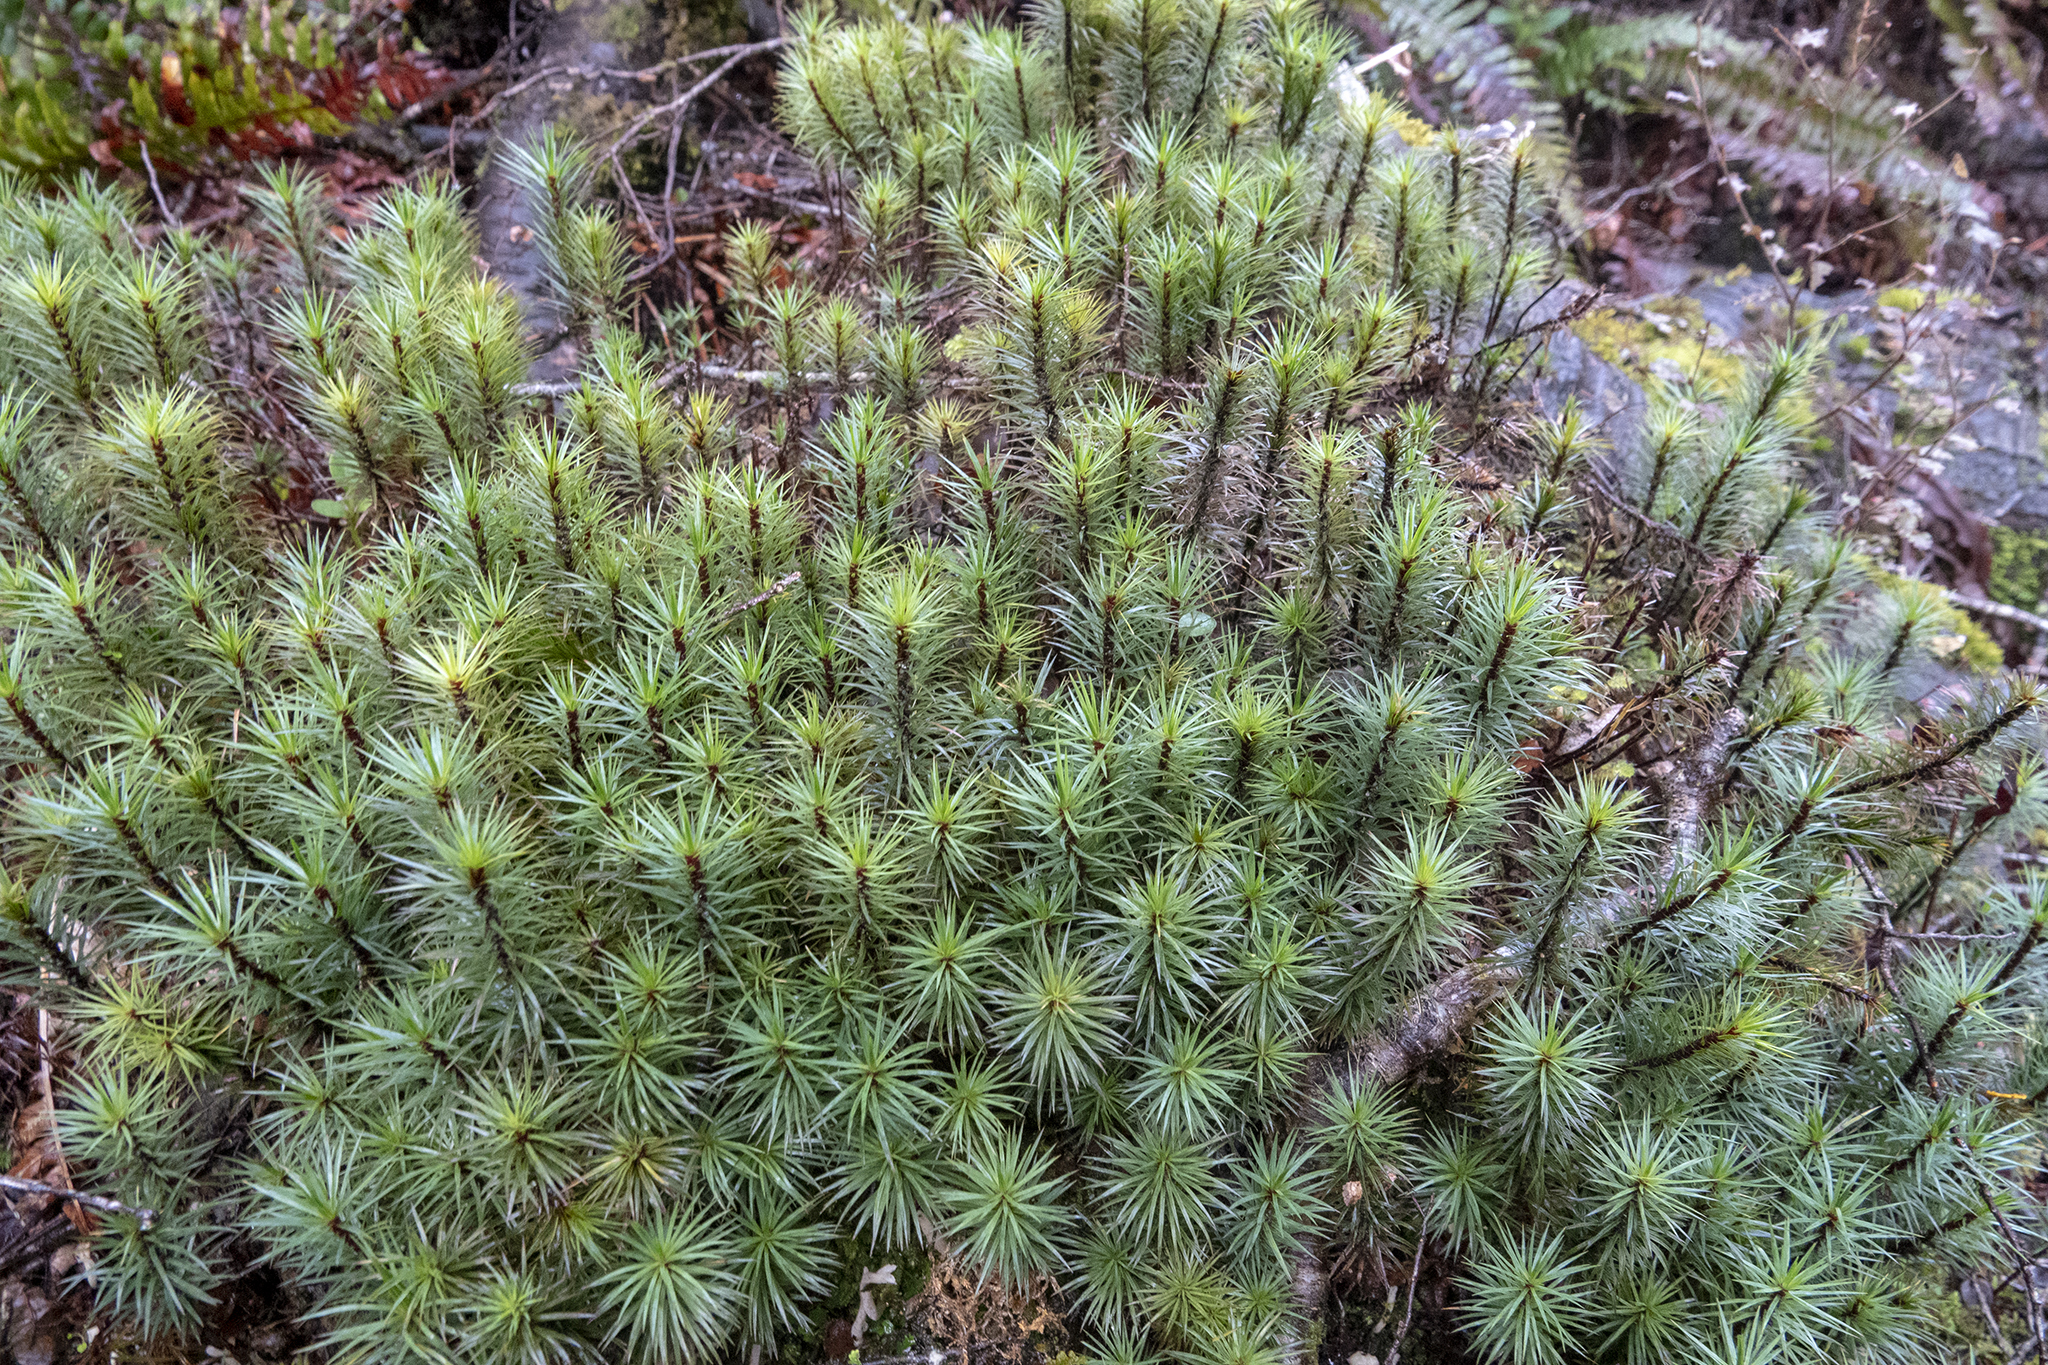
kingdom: Plantae
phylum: Bryophyta
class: Polytrichopsida
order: Polytrichales
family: Polytrichaceae
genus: Dawsonia
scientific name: Dawsonia superba
